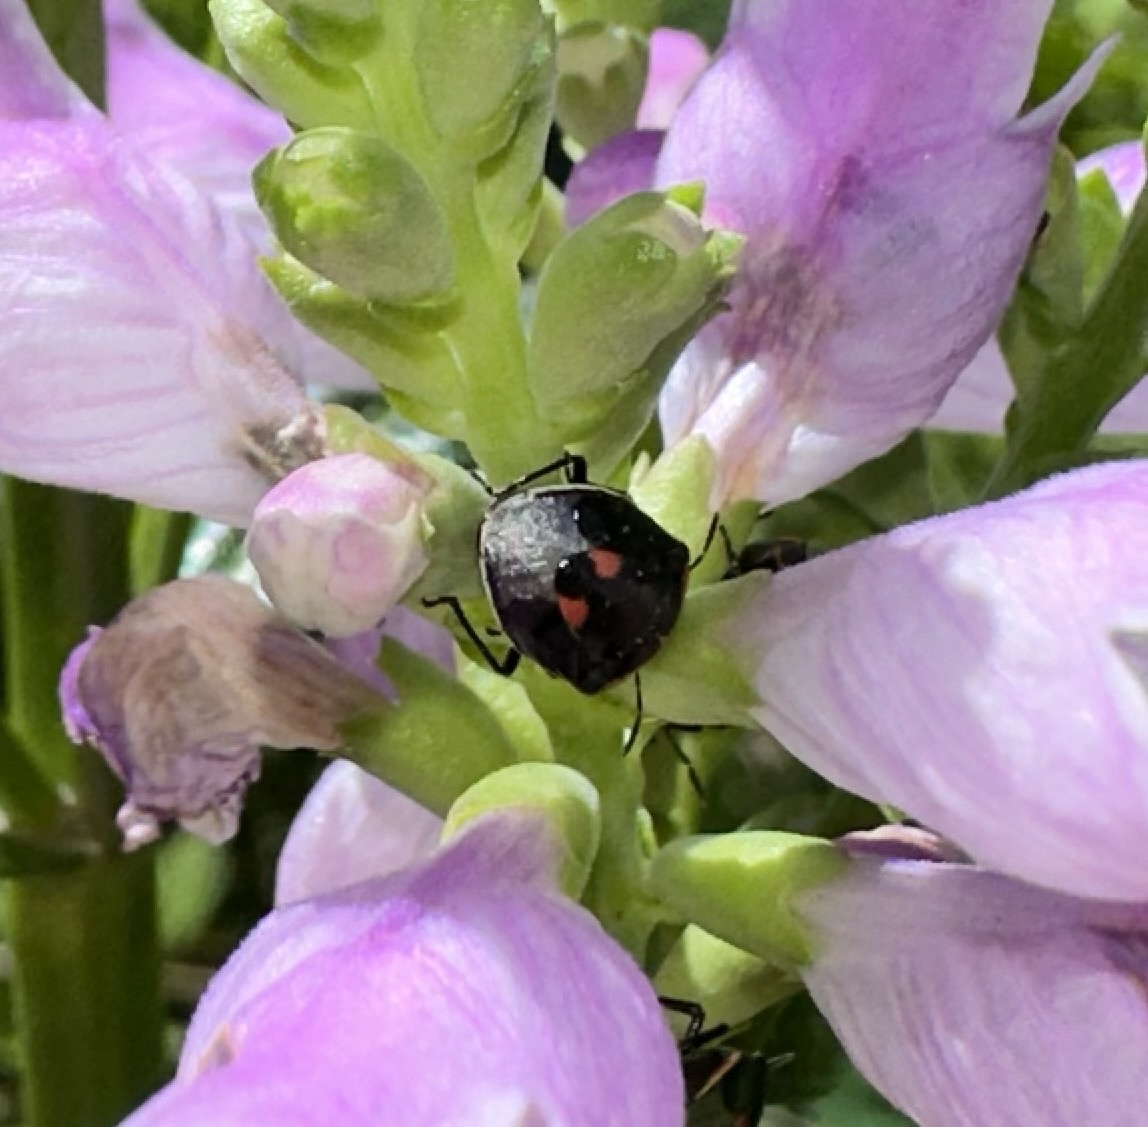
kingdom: Animalia
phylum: Arthropoda
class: Insecta
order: Hemiptera
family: Pentatomidae
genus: Cosmopepla
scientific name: Cosmopepla lintneriana
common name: Twice-stabbed stink bug
